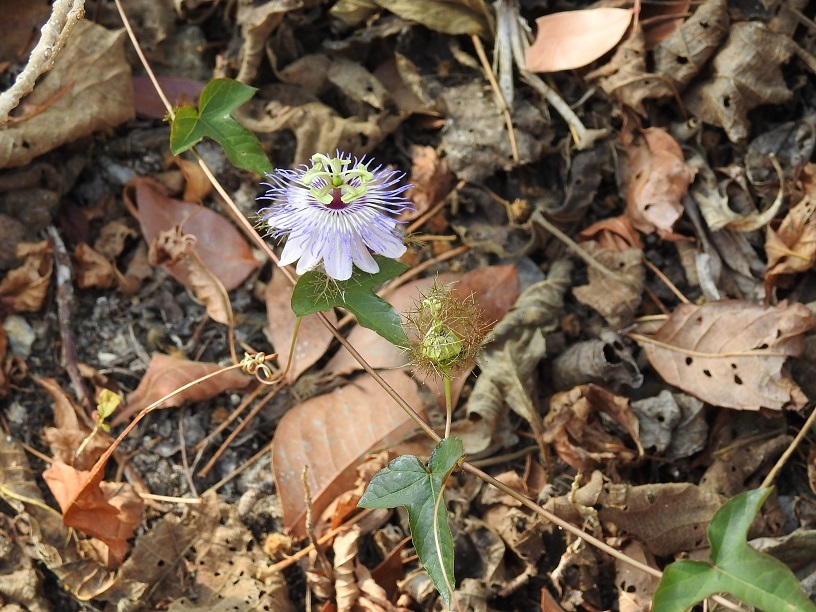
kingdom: Plantae
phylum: Tracheophyta
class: Magnoliopsida
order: Malpighiales
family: Passifloraceae
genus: Passiflora
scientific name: Passiflora ciliata
